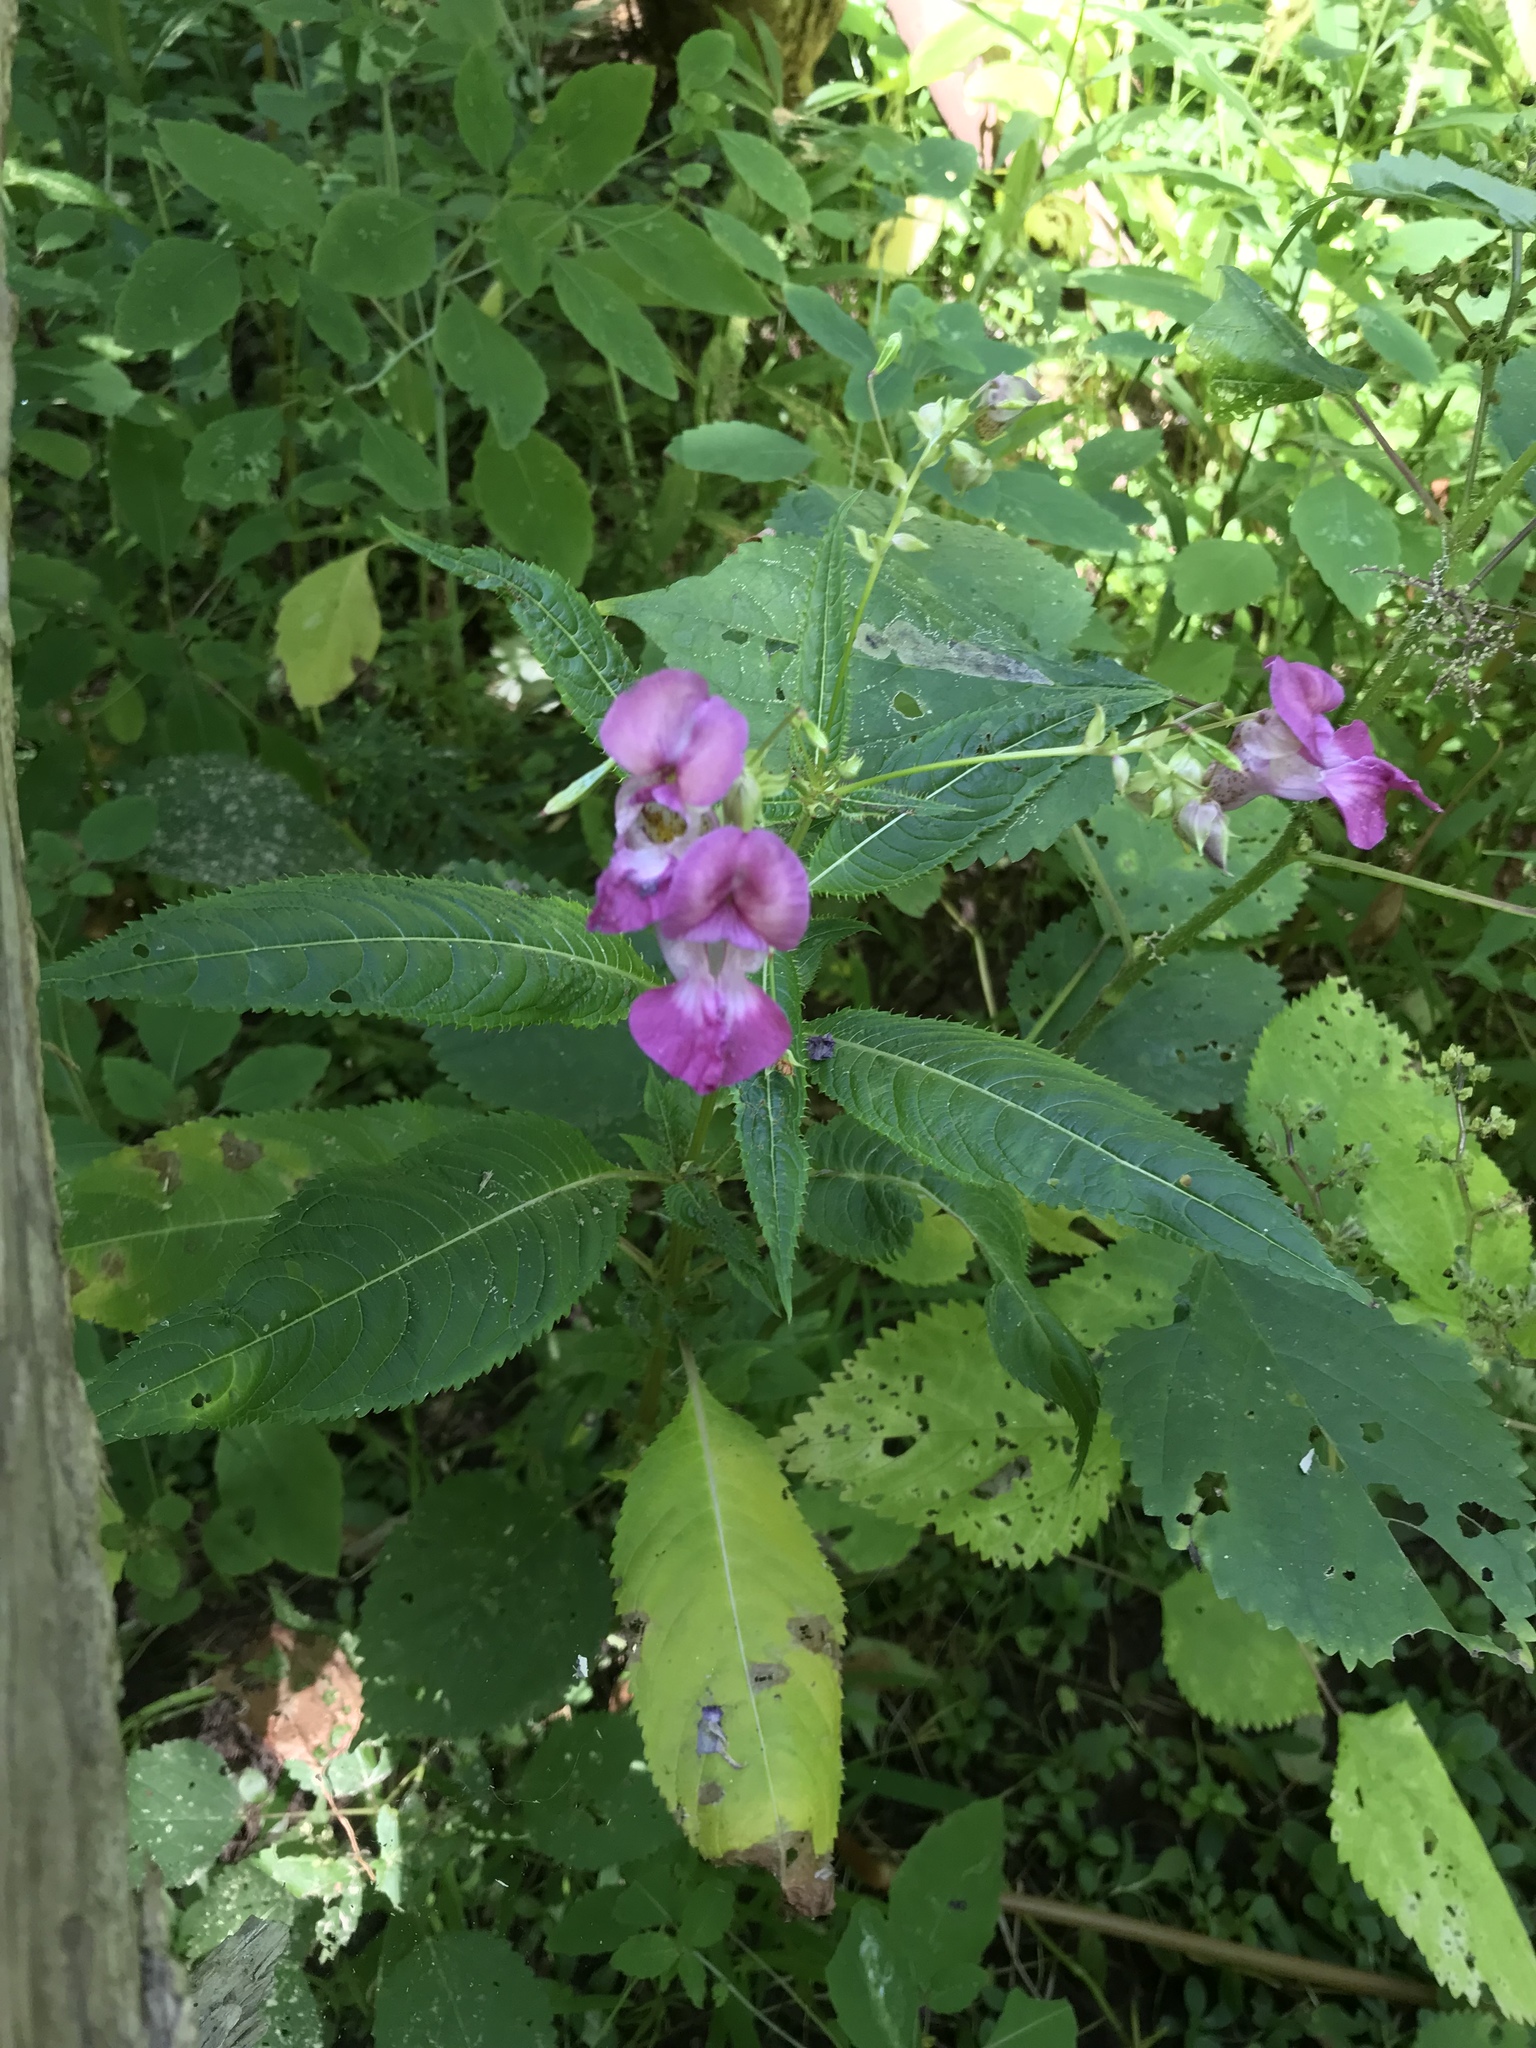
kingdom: Plantae
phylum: Tracheophyta
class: Magnoliopsida
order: Ericales
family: Balsaminaceae
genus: Impatiens
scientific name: Impatiens glandulifera
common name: Himalayan balsam
